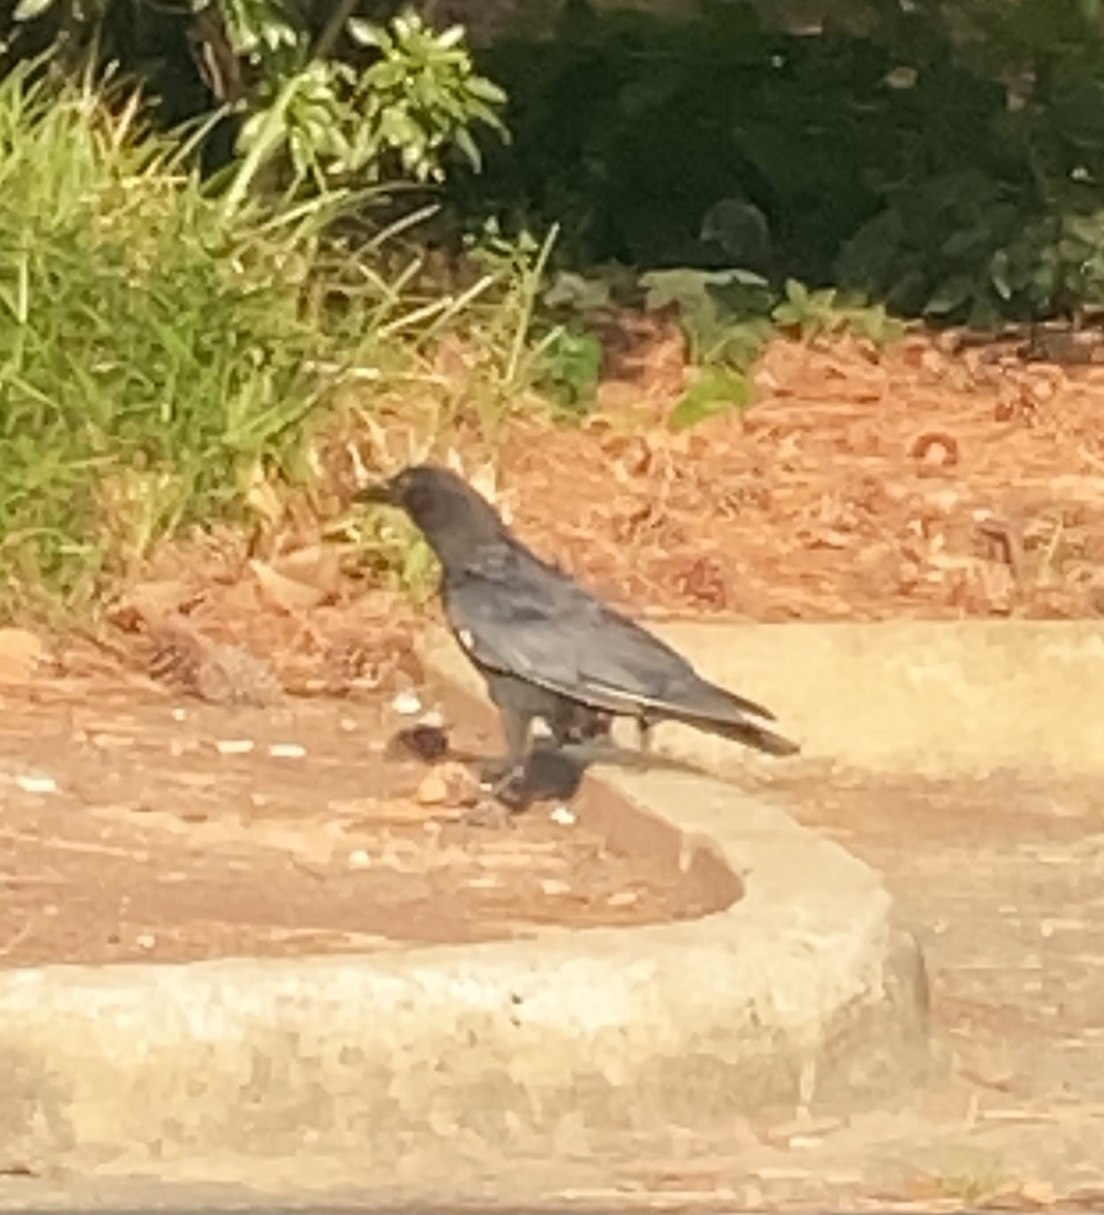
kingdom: Animalia
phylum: Chordata
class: Aves
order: Passeriformes
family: Corvidae
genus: Corvus
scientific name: Corvus
